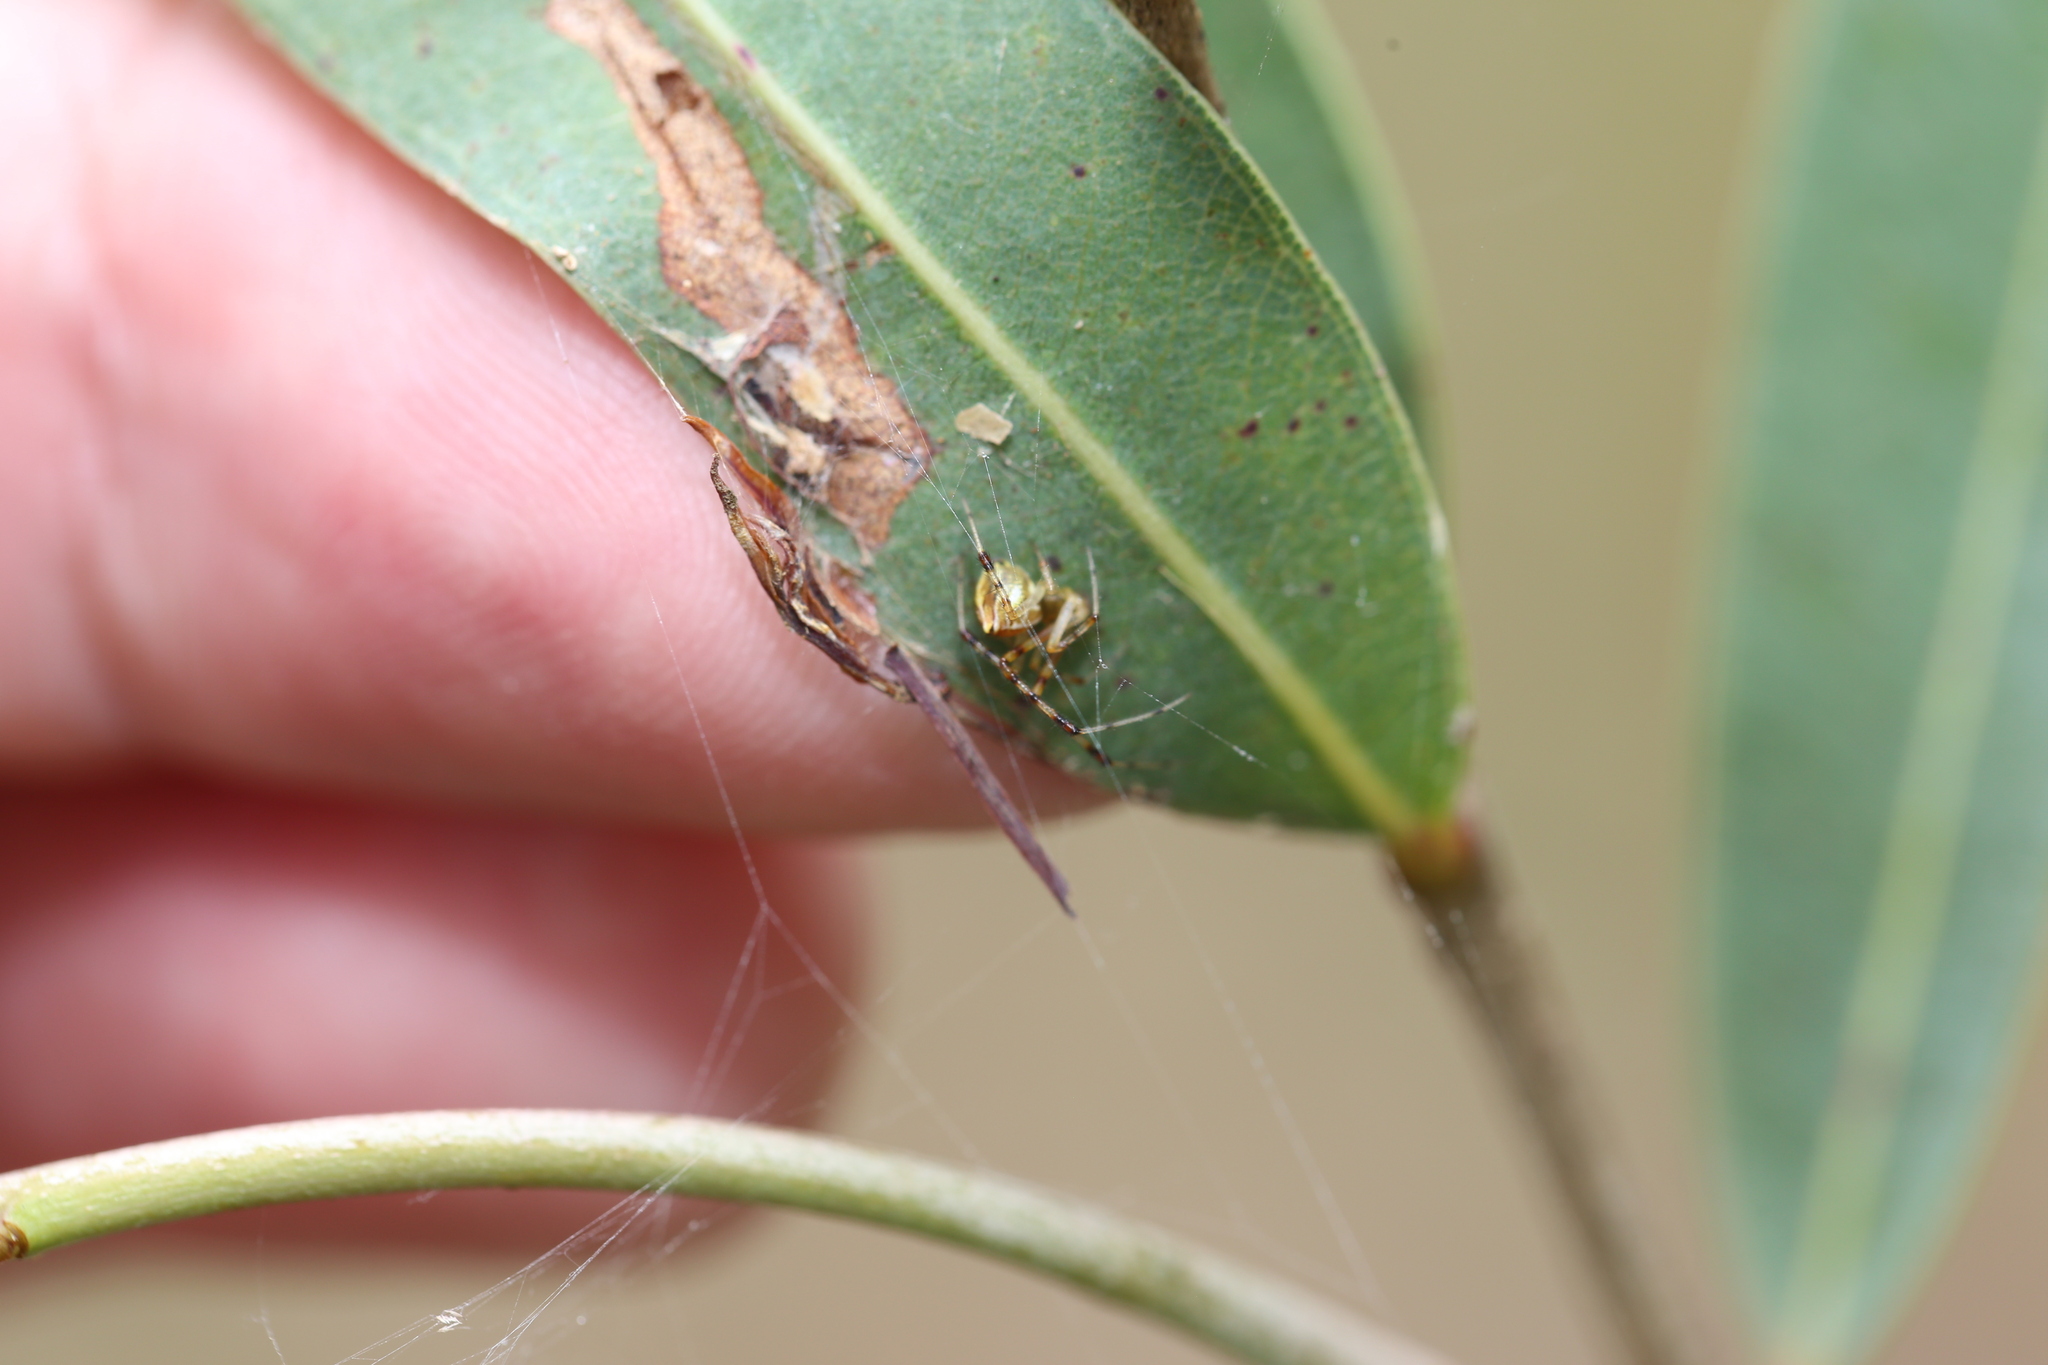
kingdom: Animalia
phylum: Arthropoda
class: Arachnida
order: Araneae
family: Theridiidae
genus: Theridion
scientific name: Theridion pyramidale
